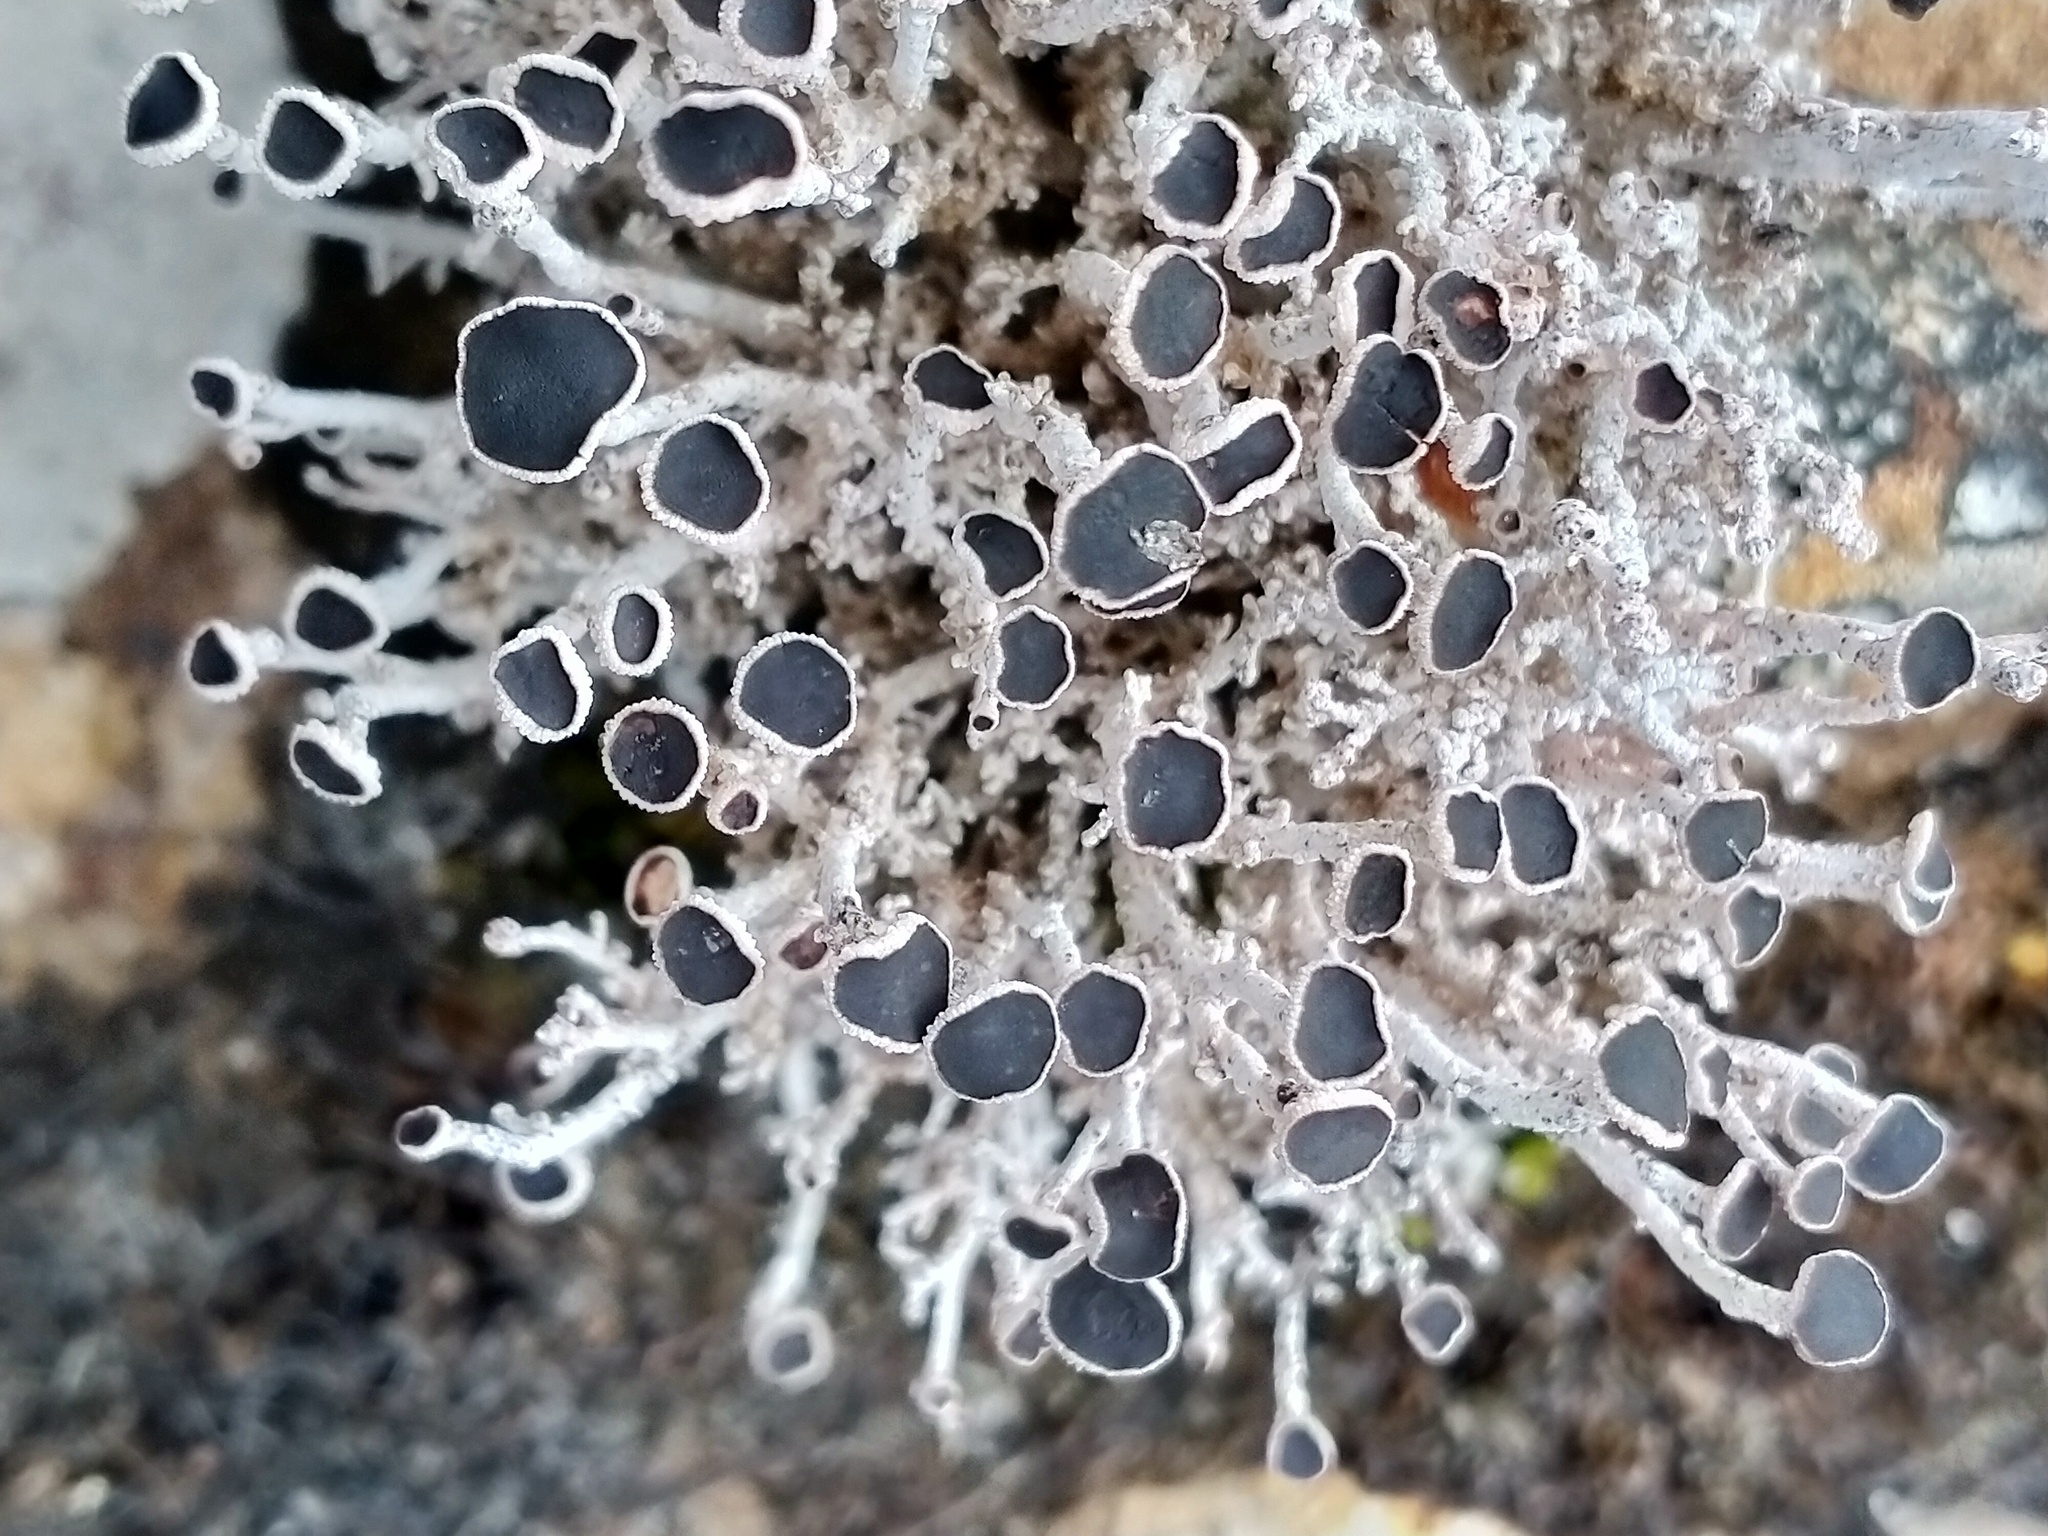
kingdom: Fungi
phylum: Ascomycota
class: Lecanoromycetes
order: Lecanorales
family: Stereocaulaceae
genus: Stereocaulon
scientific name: Stereocaulon argus
